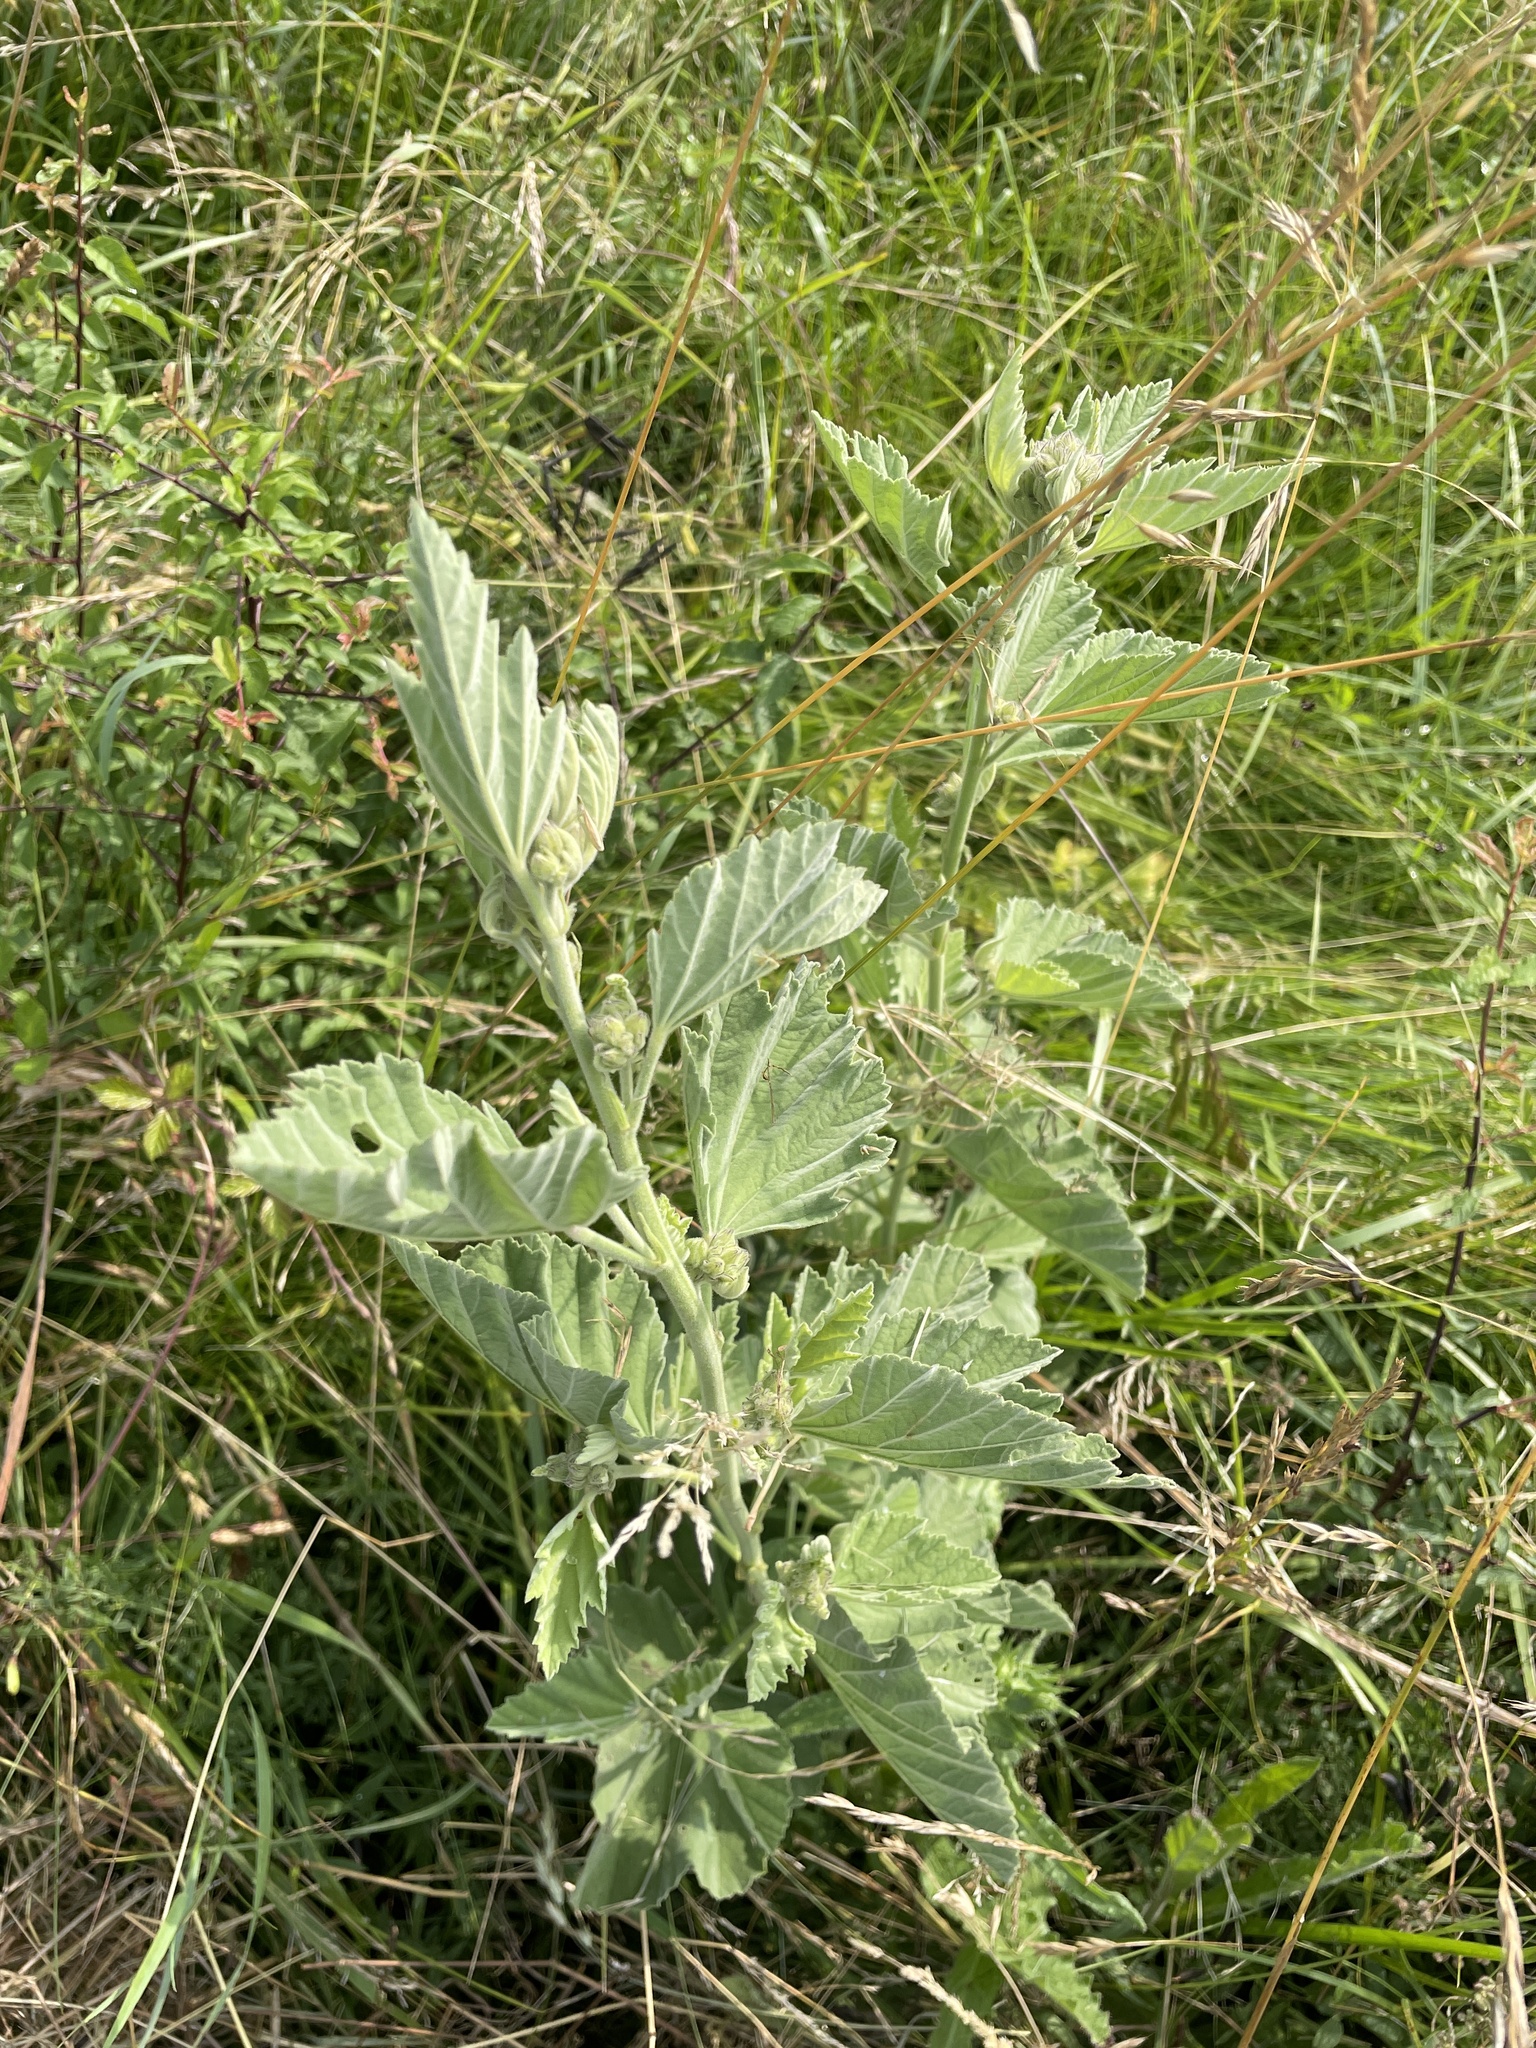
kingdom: Plantae
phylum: Tracheophyta
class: Magnoliopsida
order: Malvales
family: Malvaceae
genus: Althaea
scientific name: Althaea officinalis
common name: Marsh-mallow
